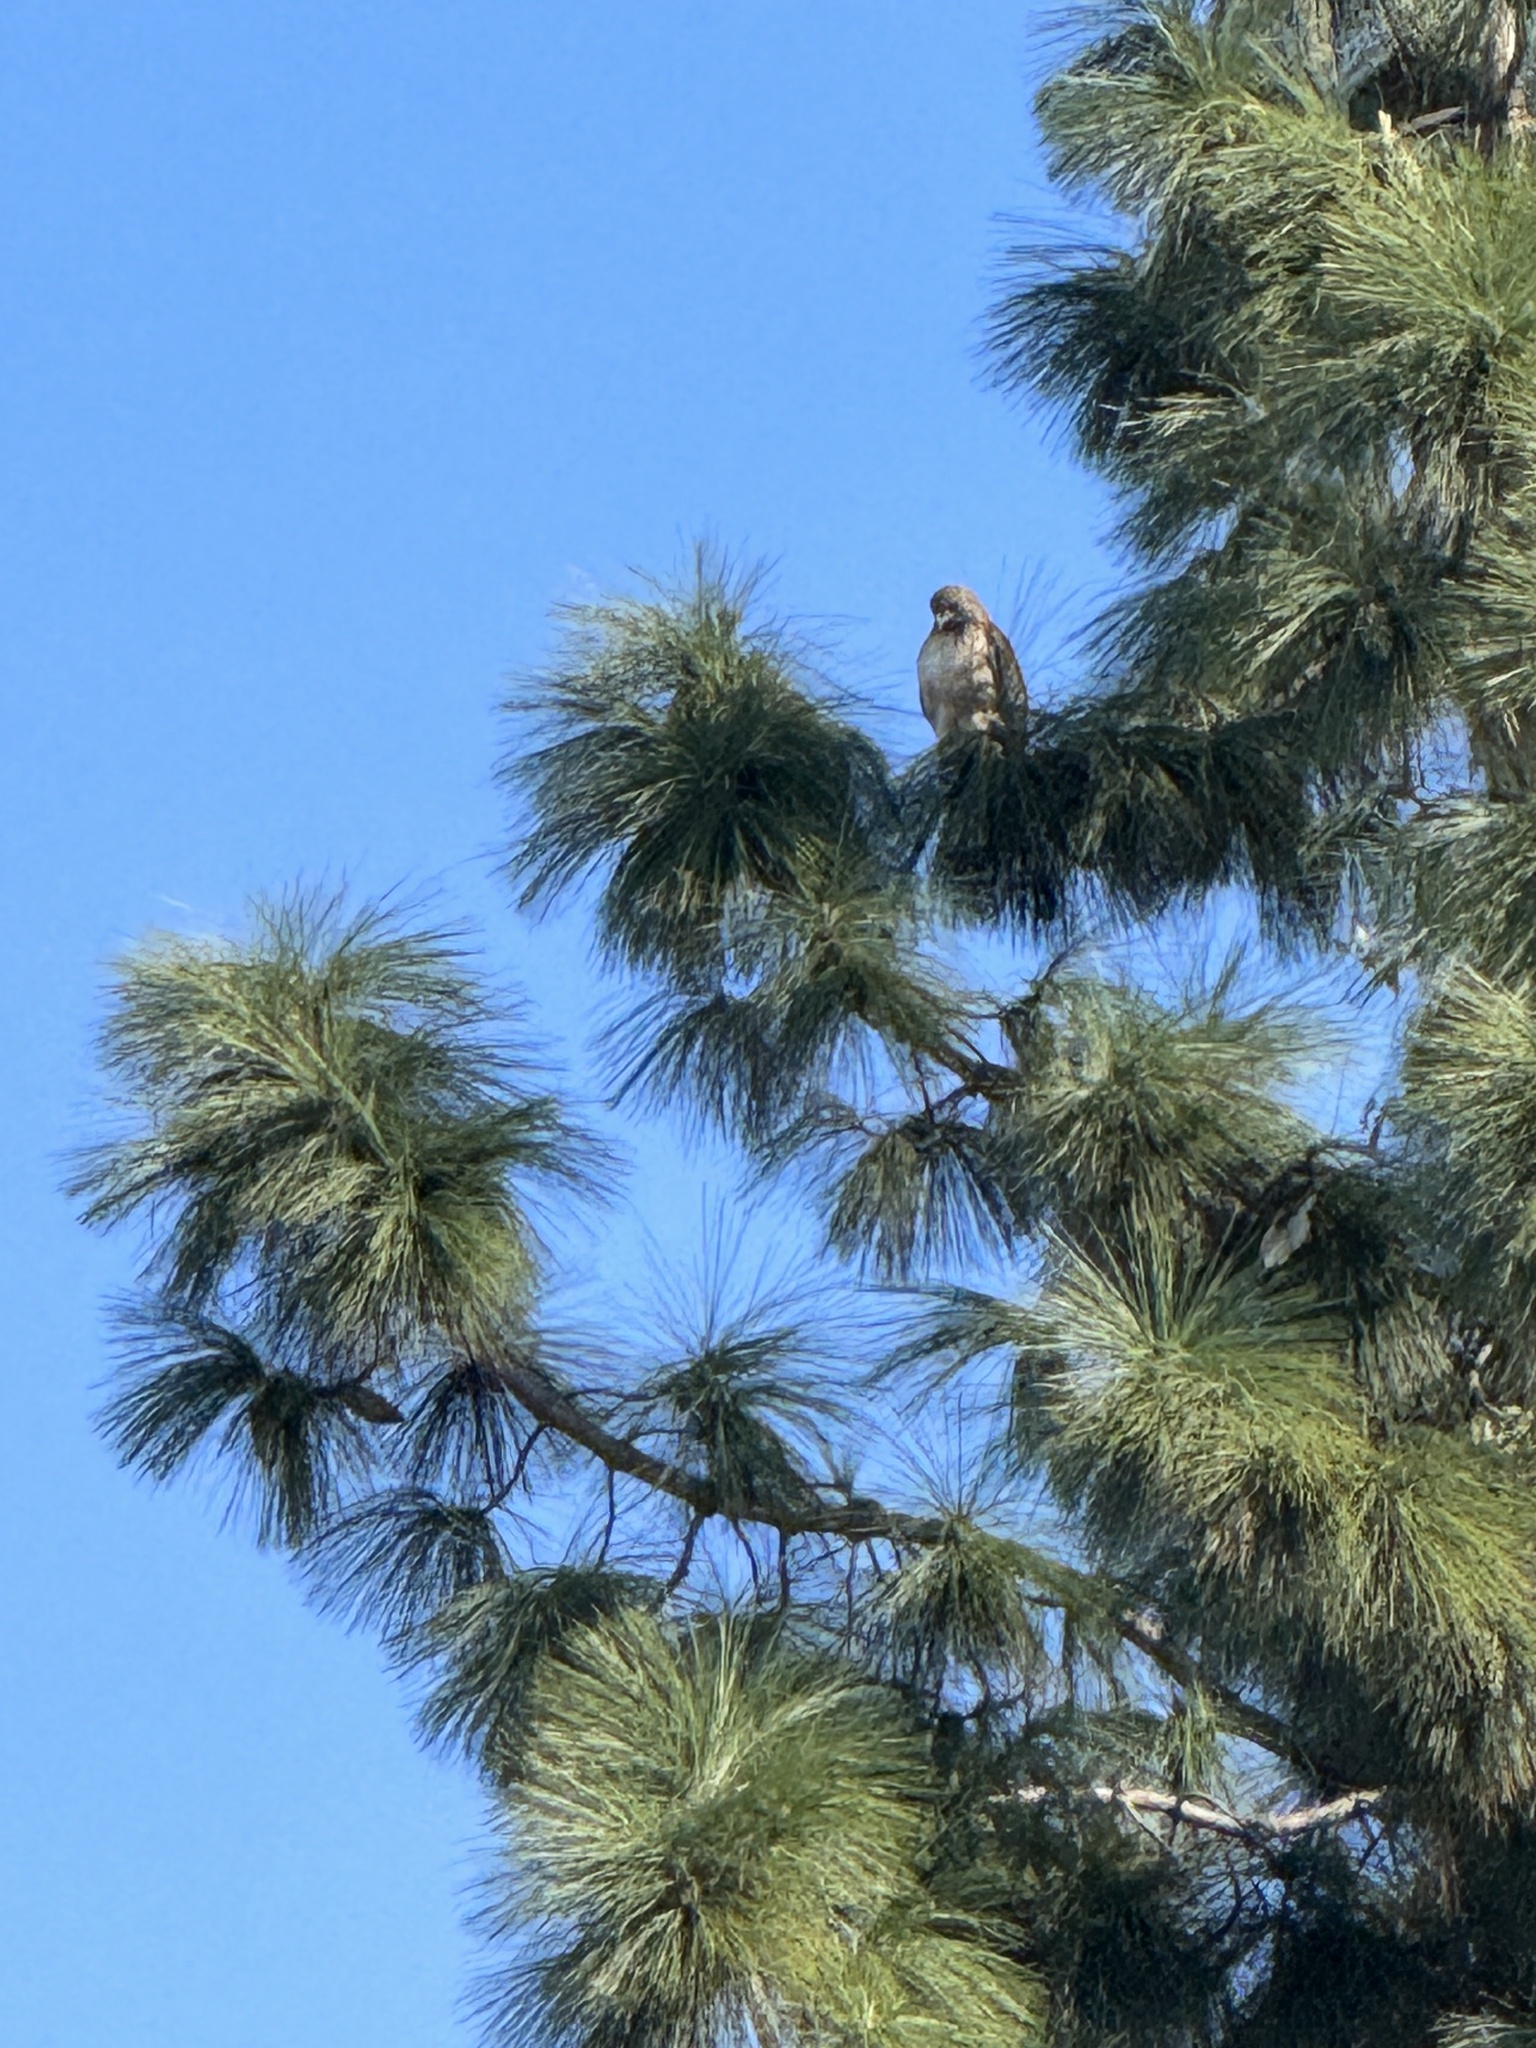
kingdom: Animalia
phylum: Chordata
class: Aves
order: Accipitriformes
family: Accipitridae
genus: Buteo
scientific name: Buteo jamaicensis
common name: Red-tailed hawk
